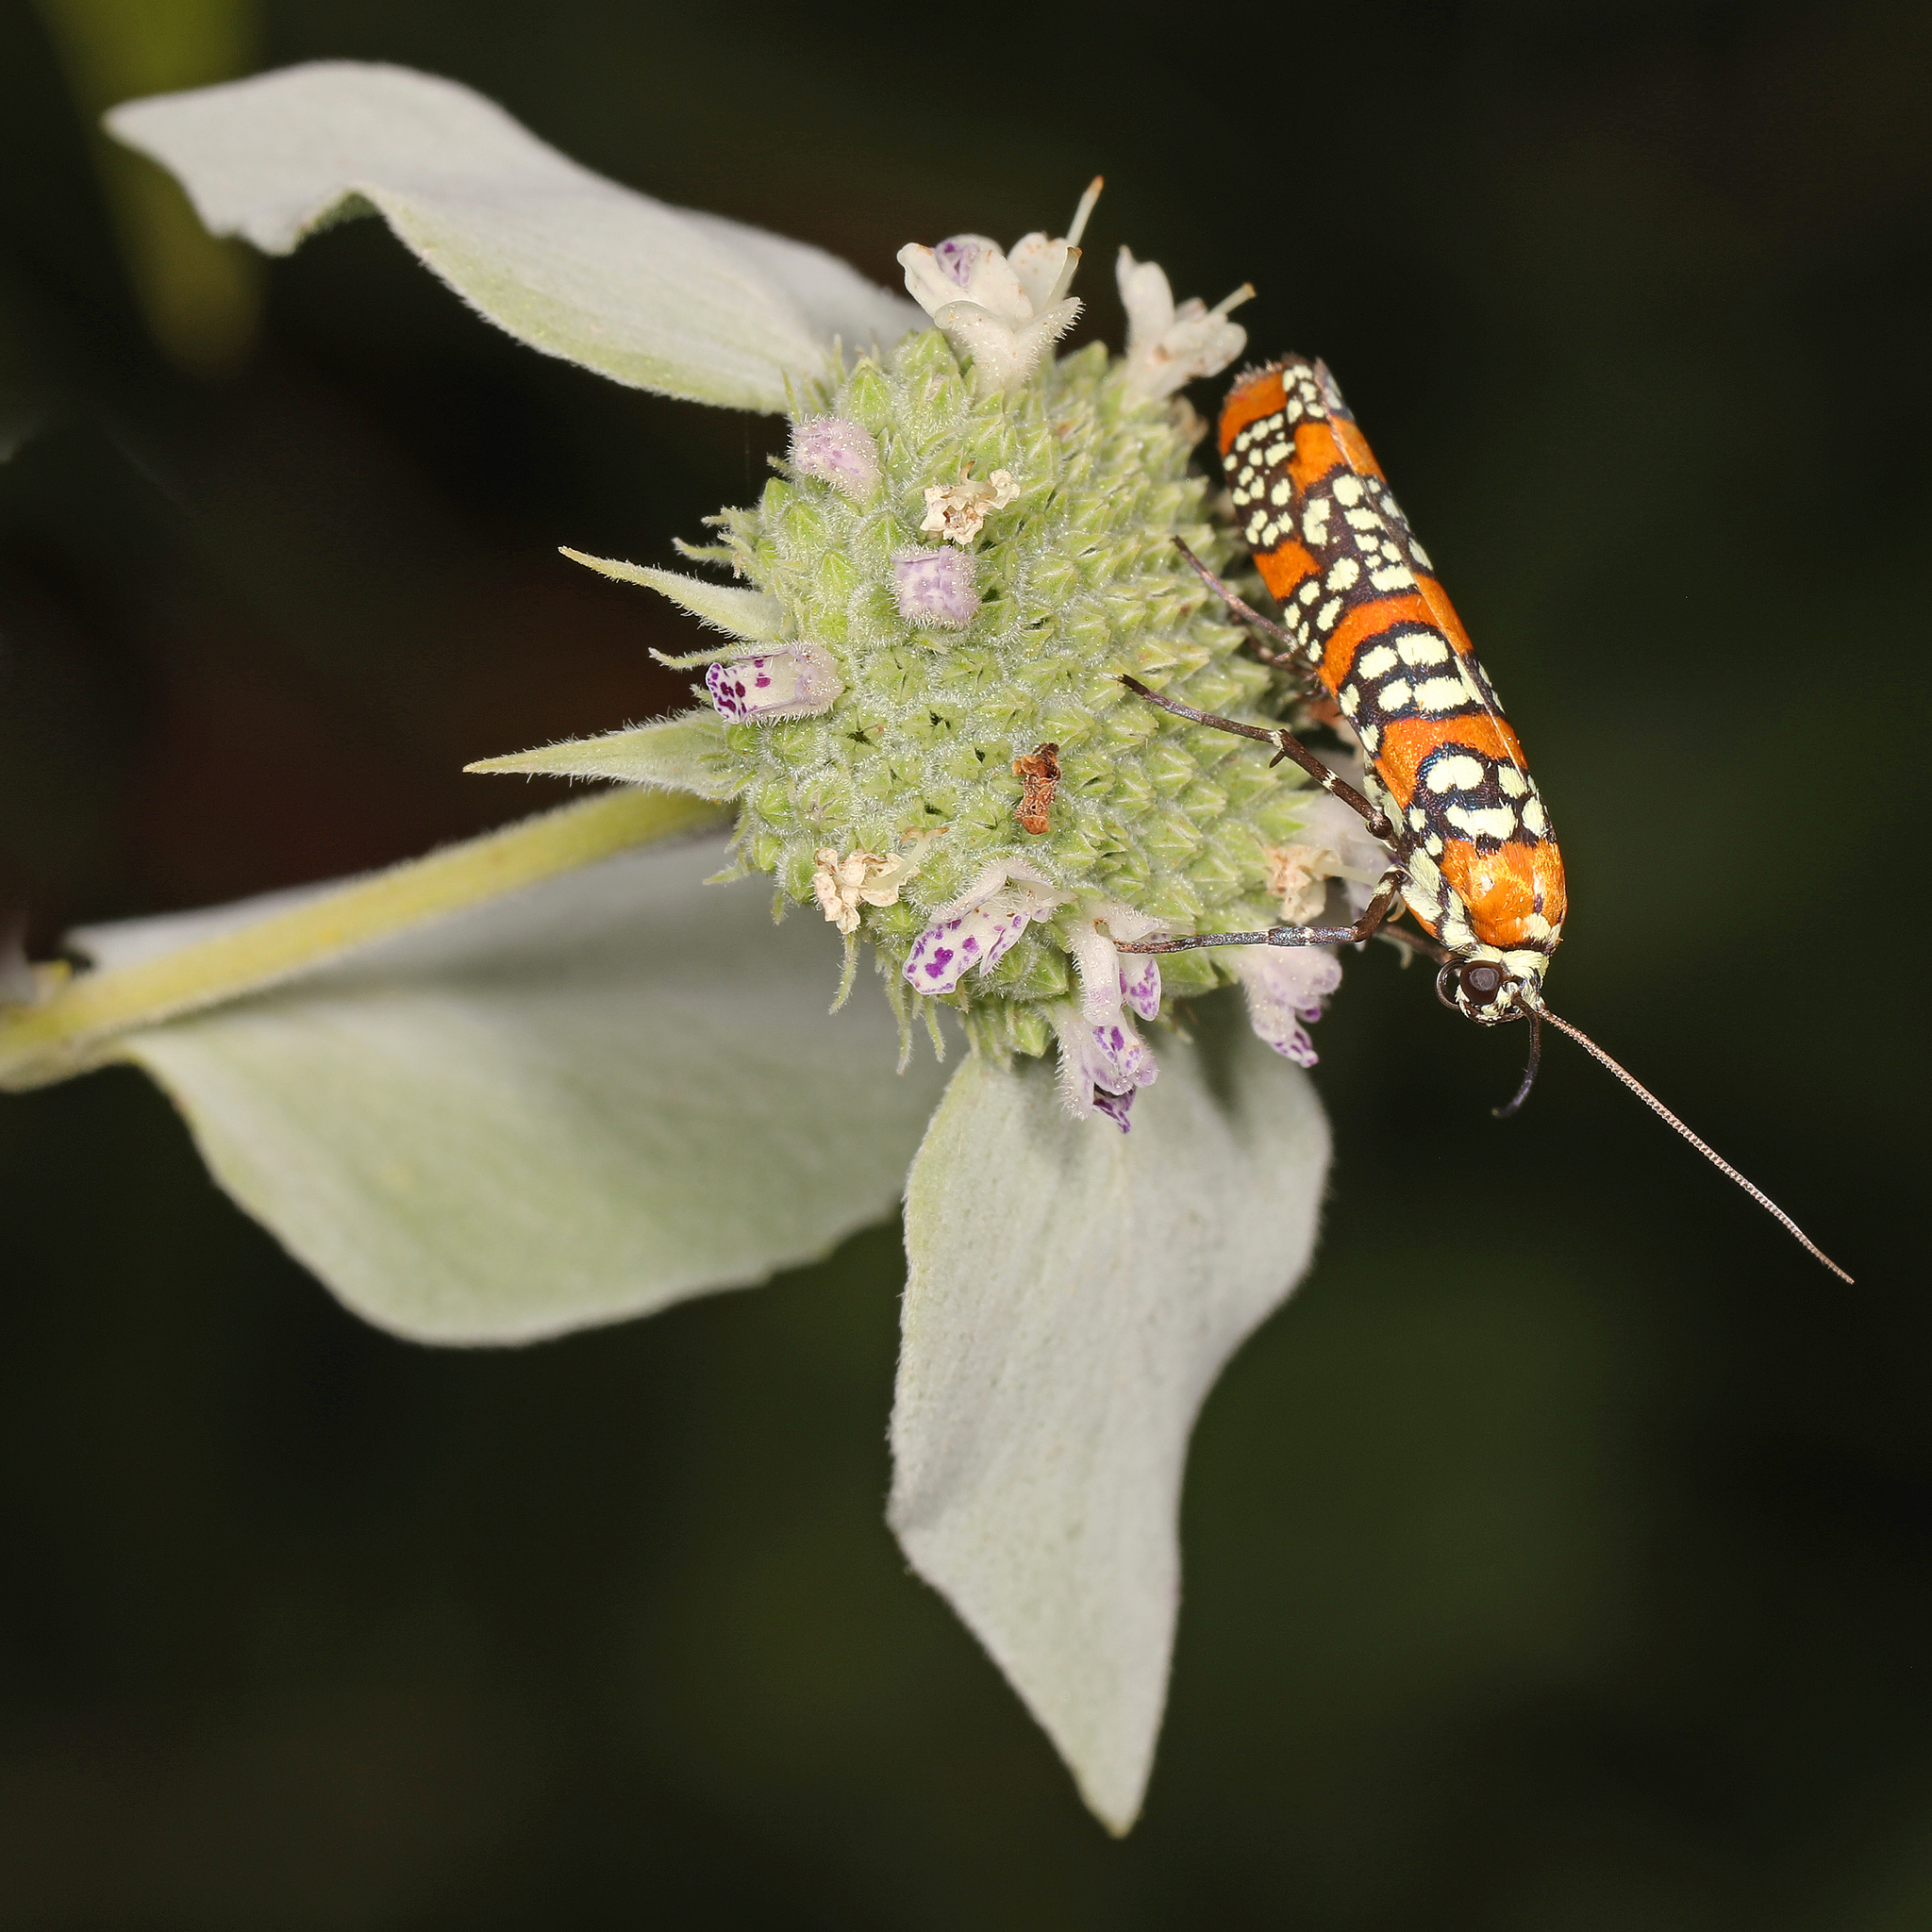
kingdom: Animalia
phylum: Arthropoda
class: Insecta
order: Lepidoptera
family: Attevidae
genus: Atteva
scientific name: Atteva punctella
